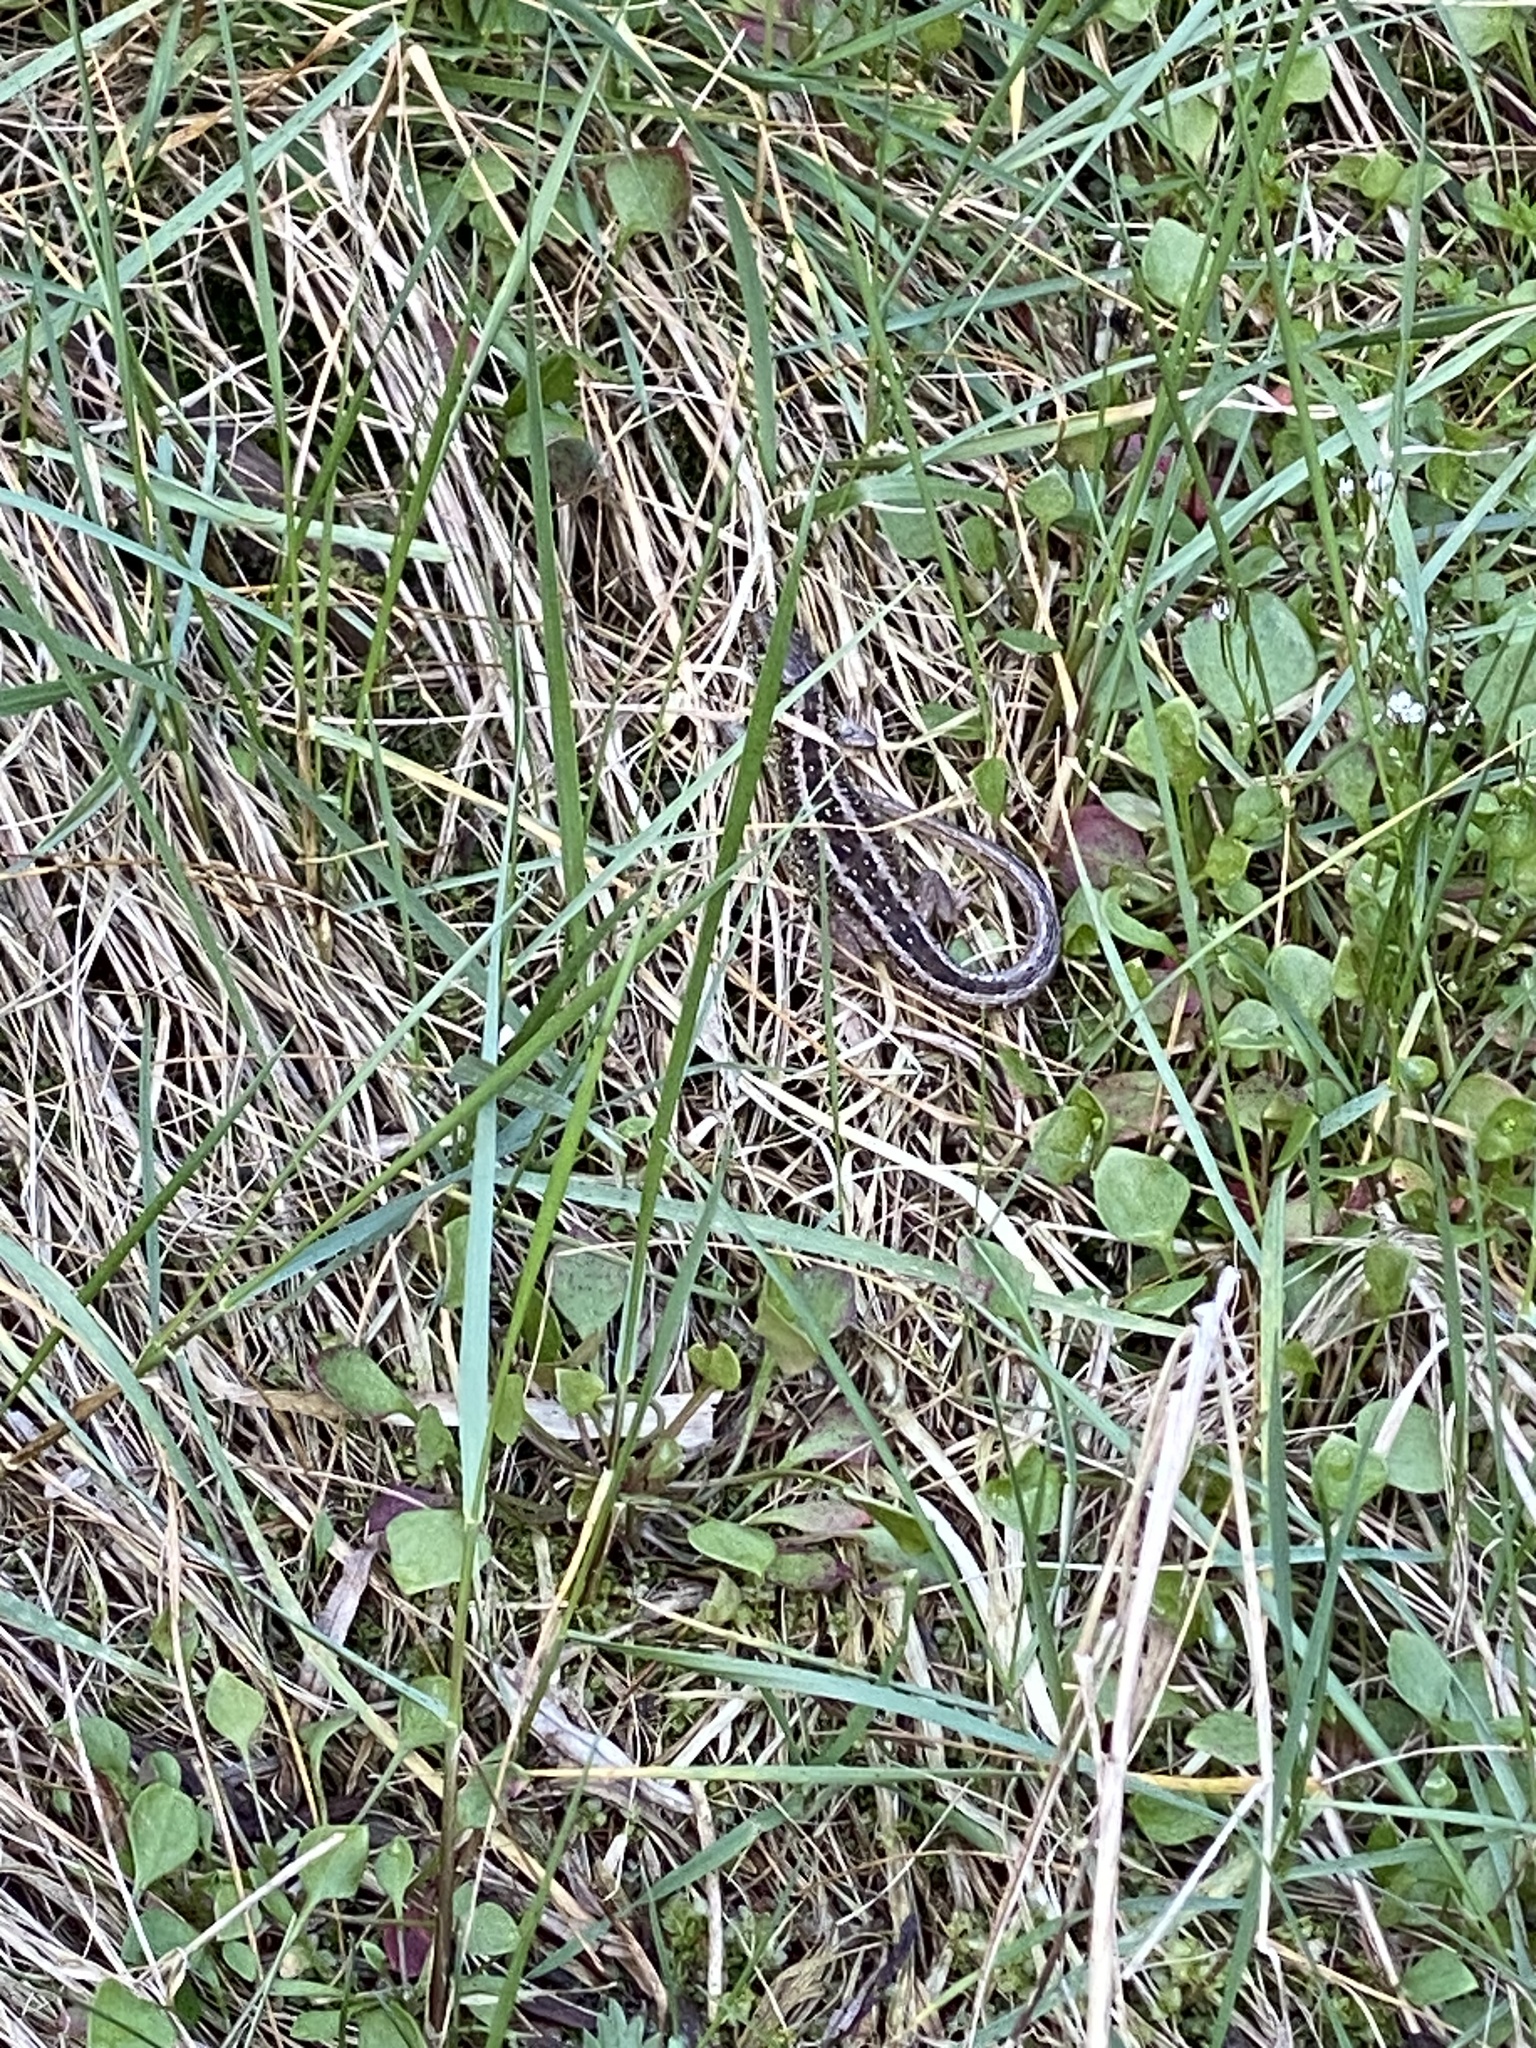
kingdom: Animalia
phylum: Chordata
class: Squamata
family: Lacertidae
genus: Lacerta
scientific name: Lacerta agilis
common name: Sand lizard
